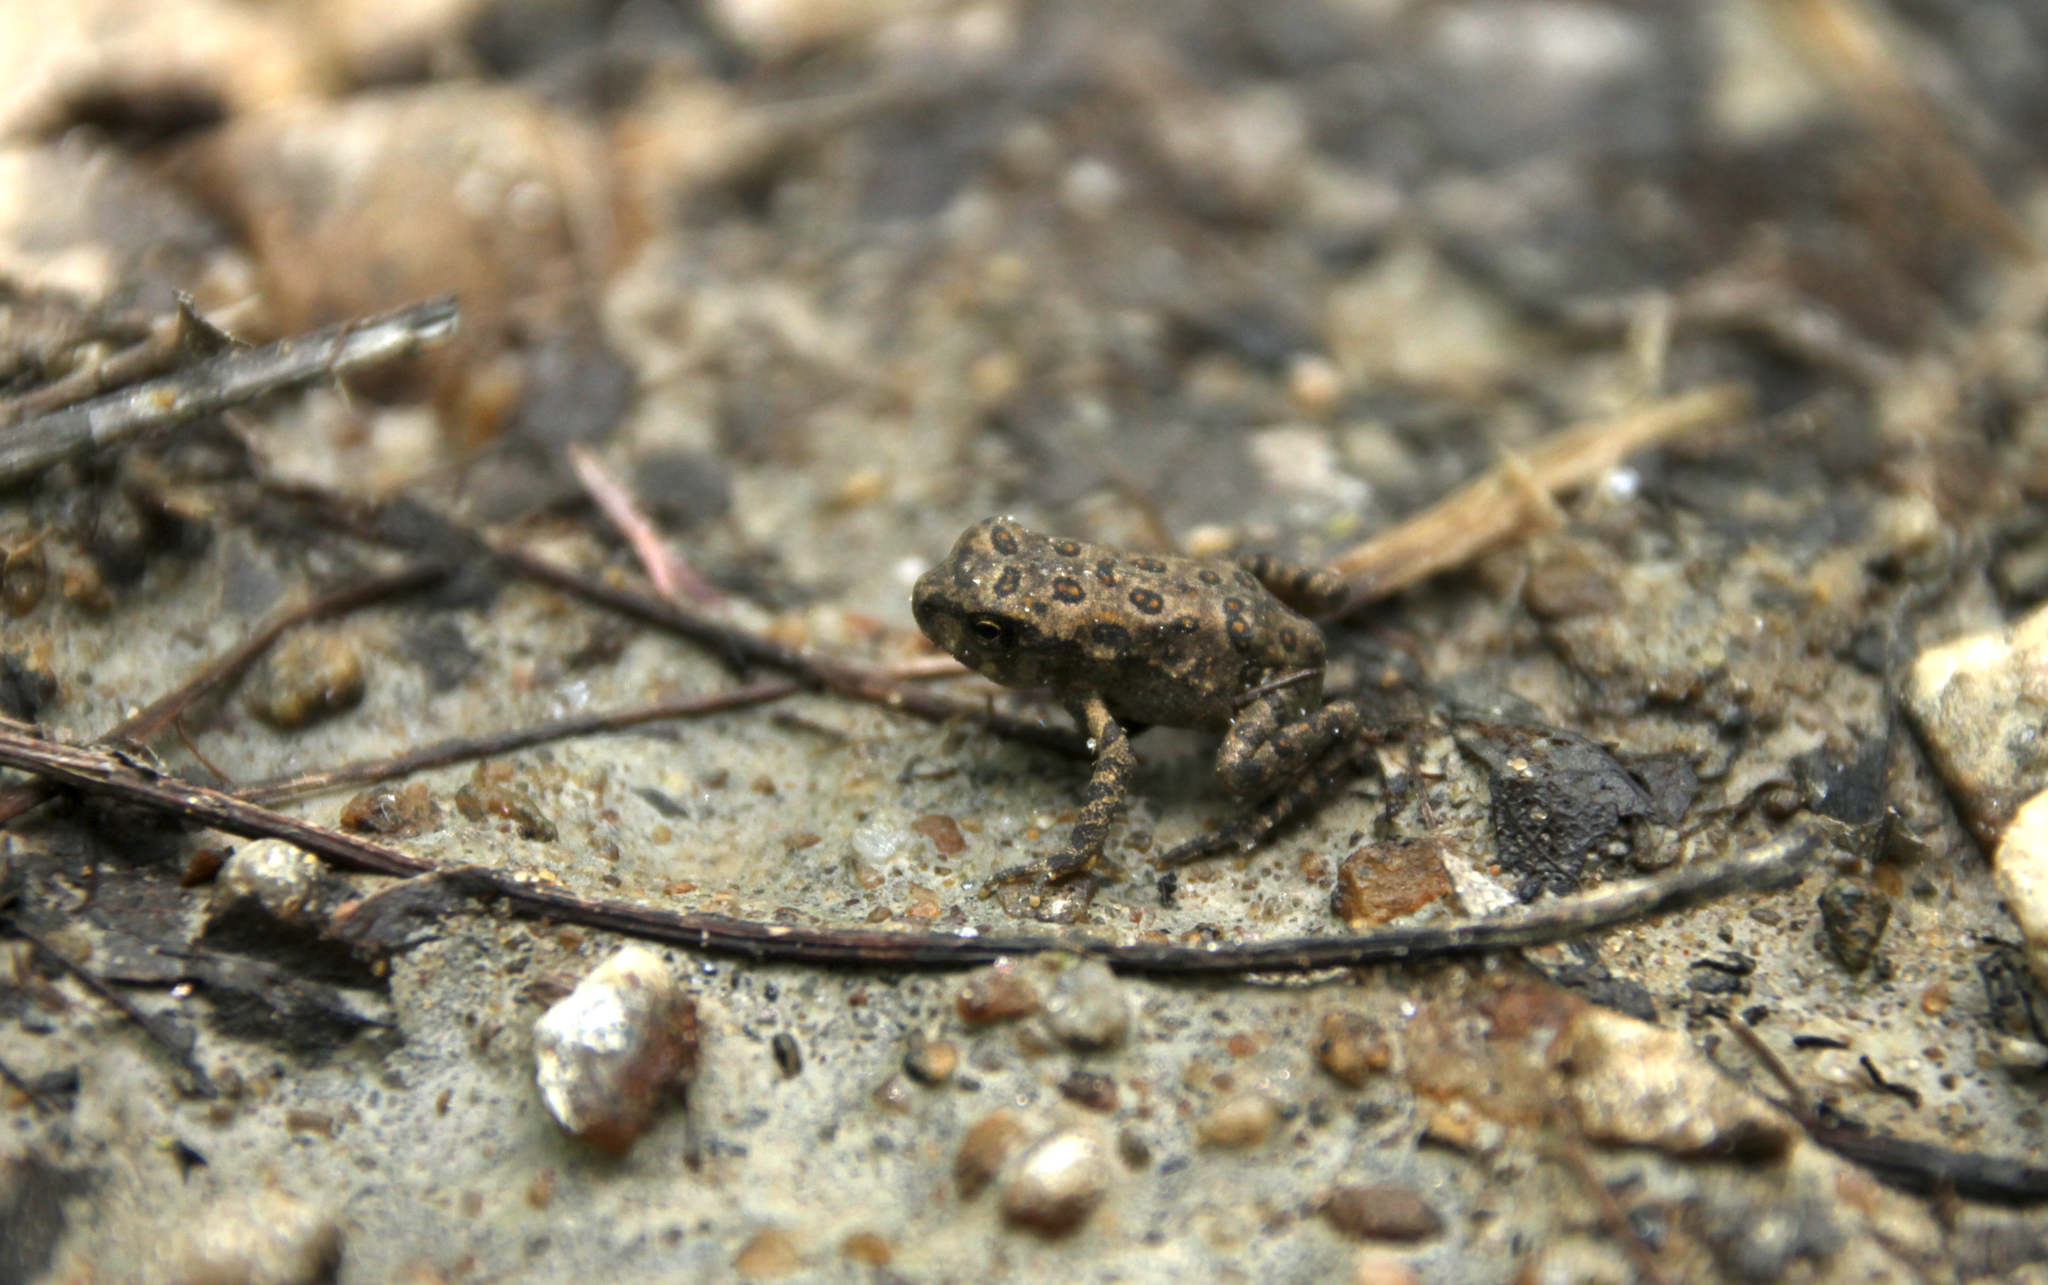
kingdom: Animalia
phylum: Chordata
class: Amphibia
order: Anura
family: Bufonidae
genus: Anaxyrus
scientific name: Anaxyrus americanus
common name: American toad
